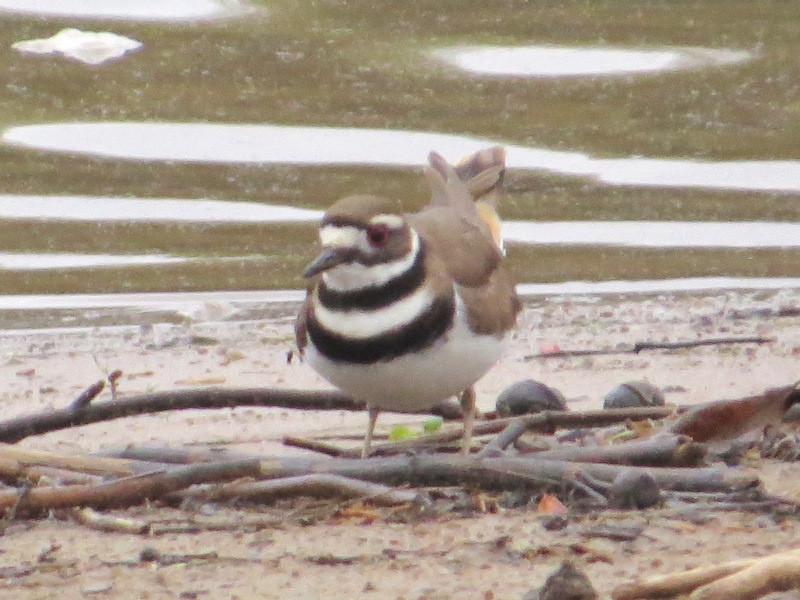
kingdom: Animalia
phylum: Chordata
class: Aves
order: Charadriiformes
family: Charadriidae
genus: Charadrius
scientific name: Charadrius vociferus
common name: Killdeer
